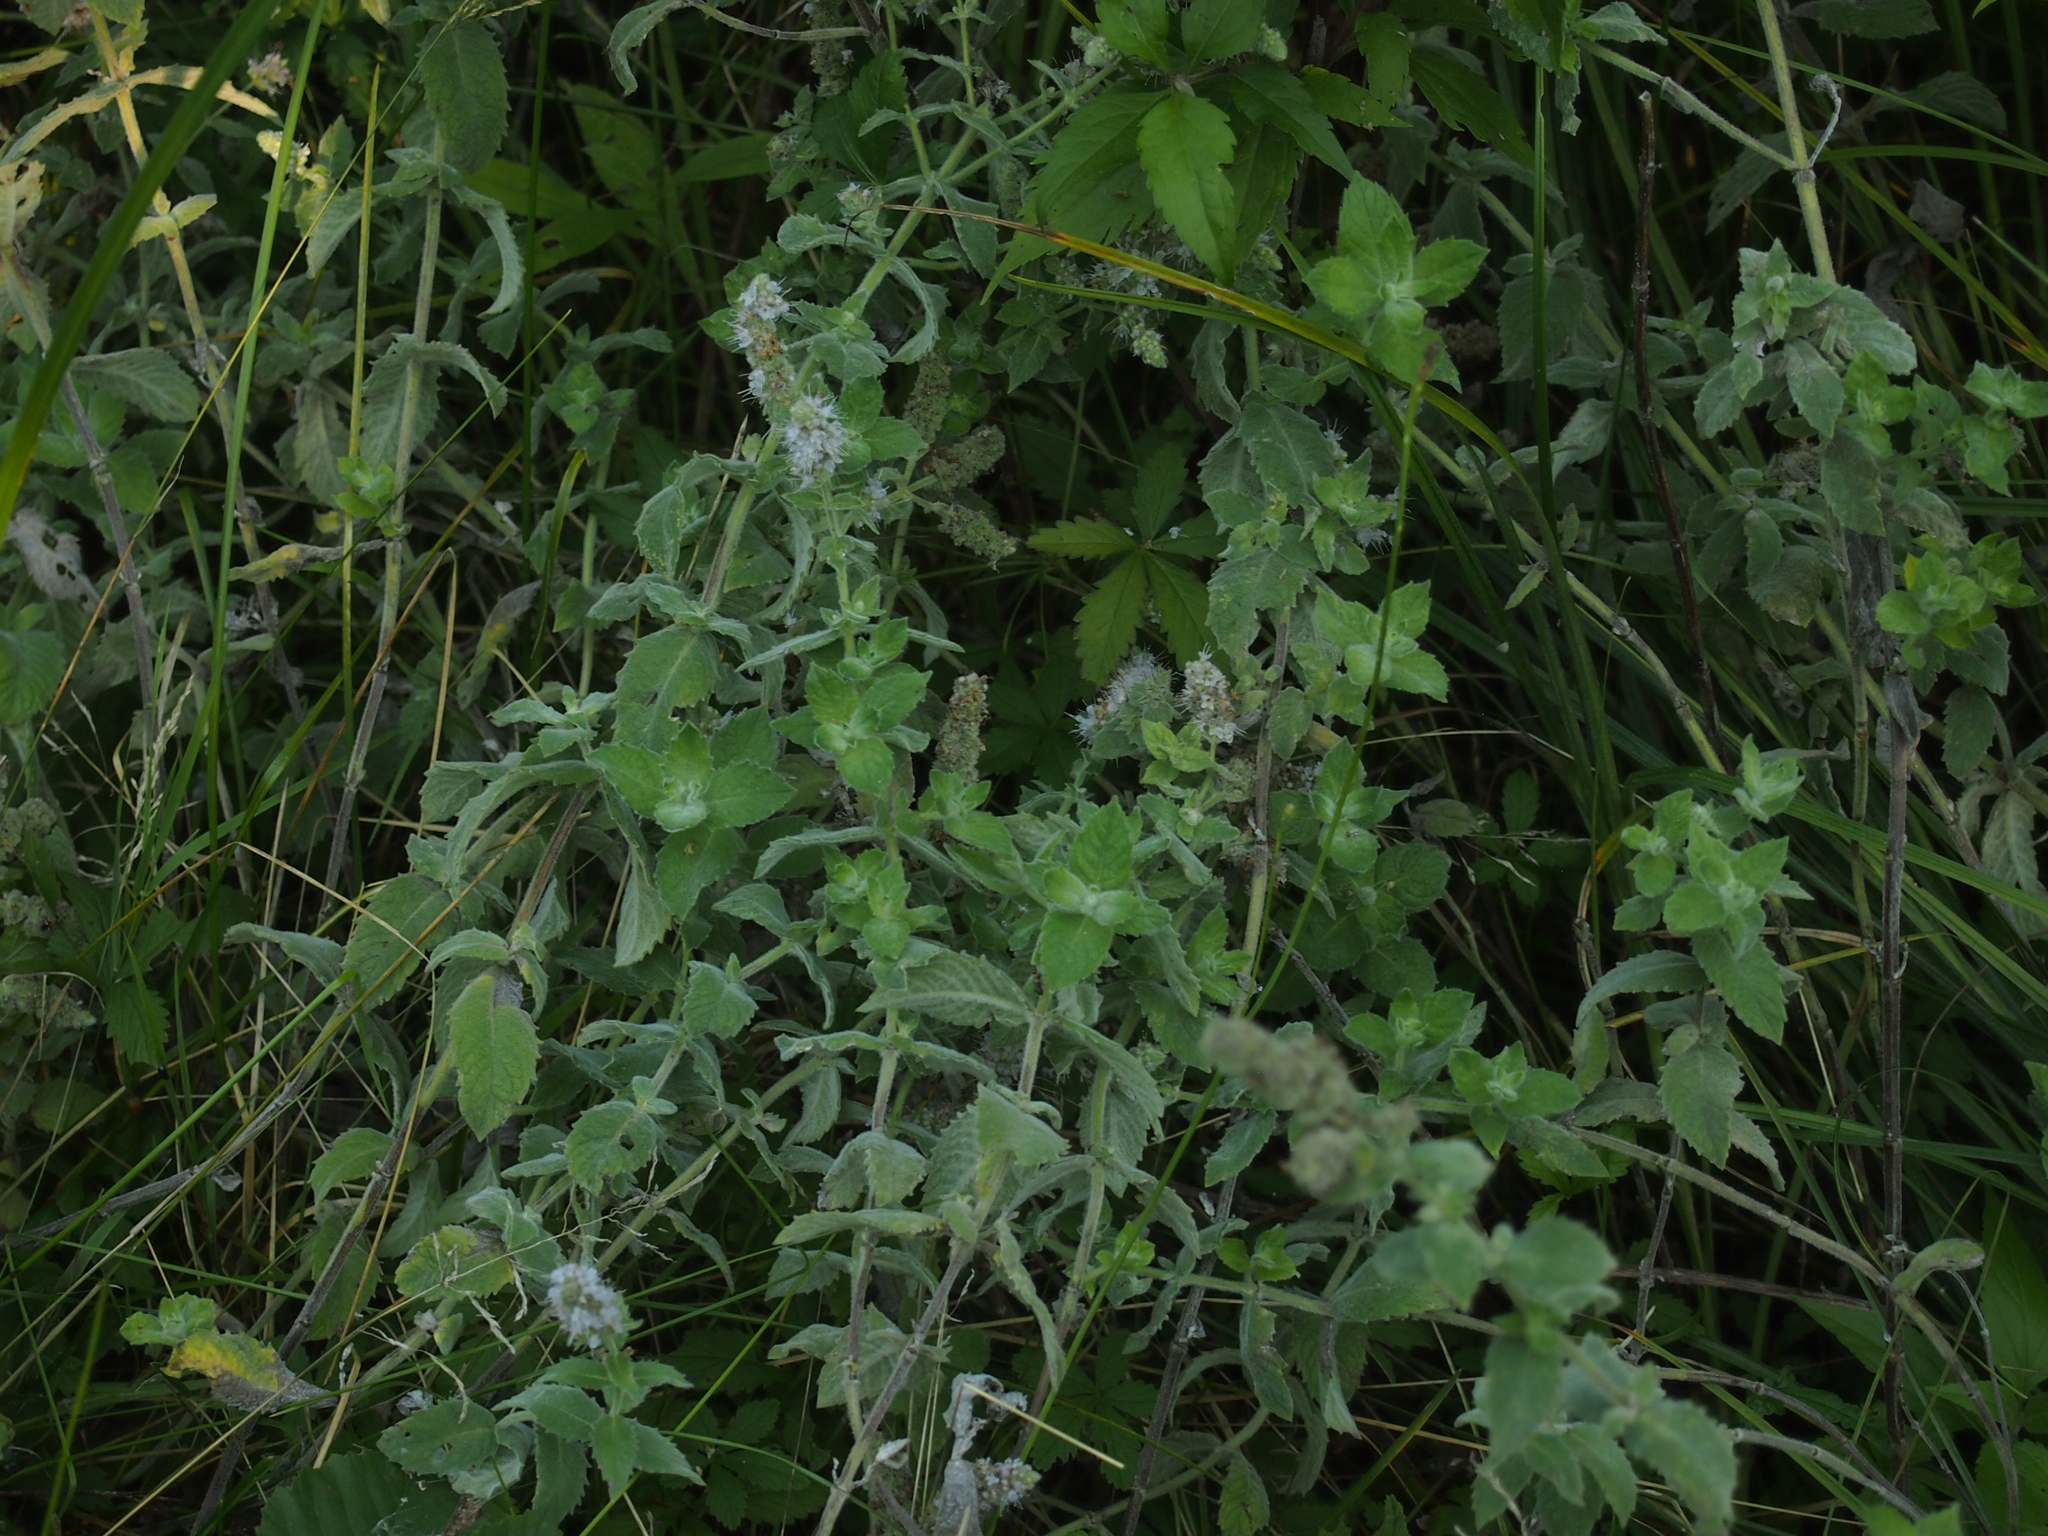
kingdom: Plantae
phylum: Tracheophyta
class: Magnoliopsida
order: Lamiales
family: Lamiaceae
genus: Mentha
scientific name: Mentha longifolia
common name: Horse mint
